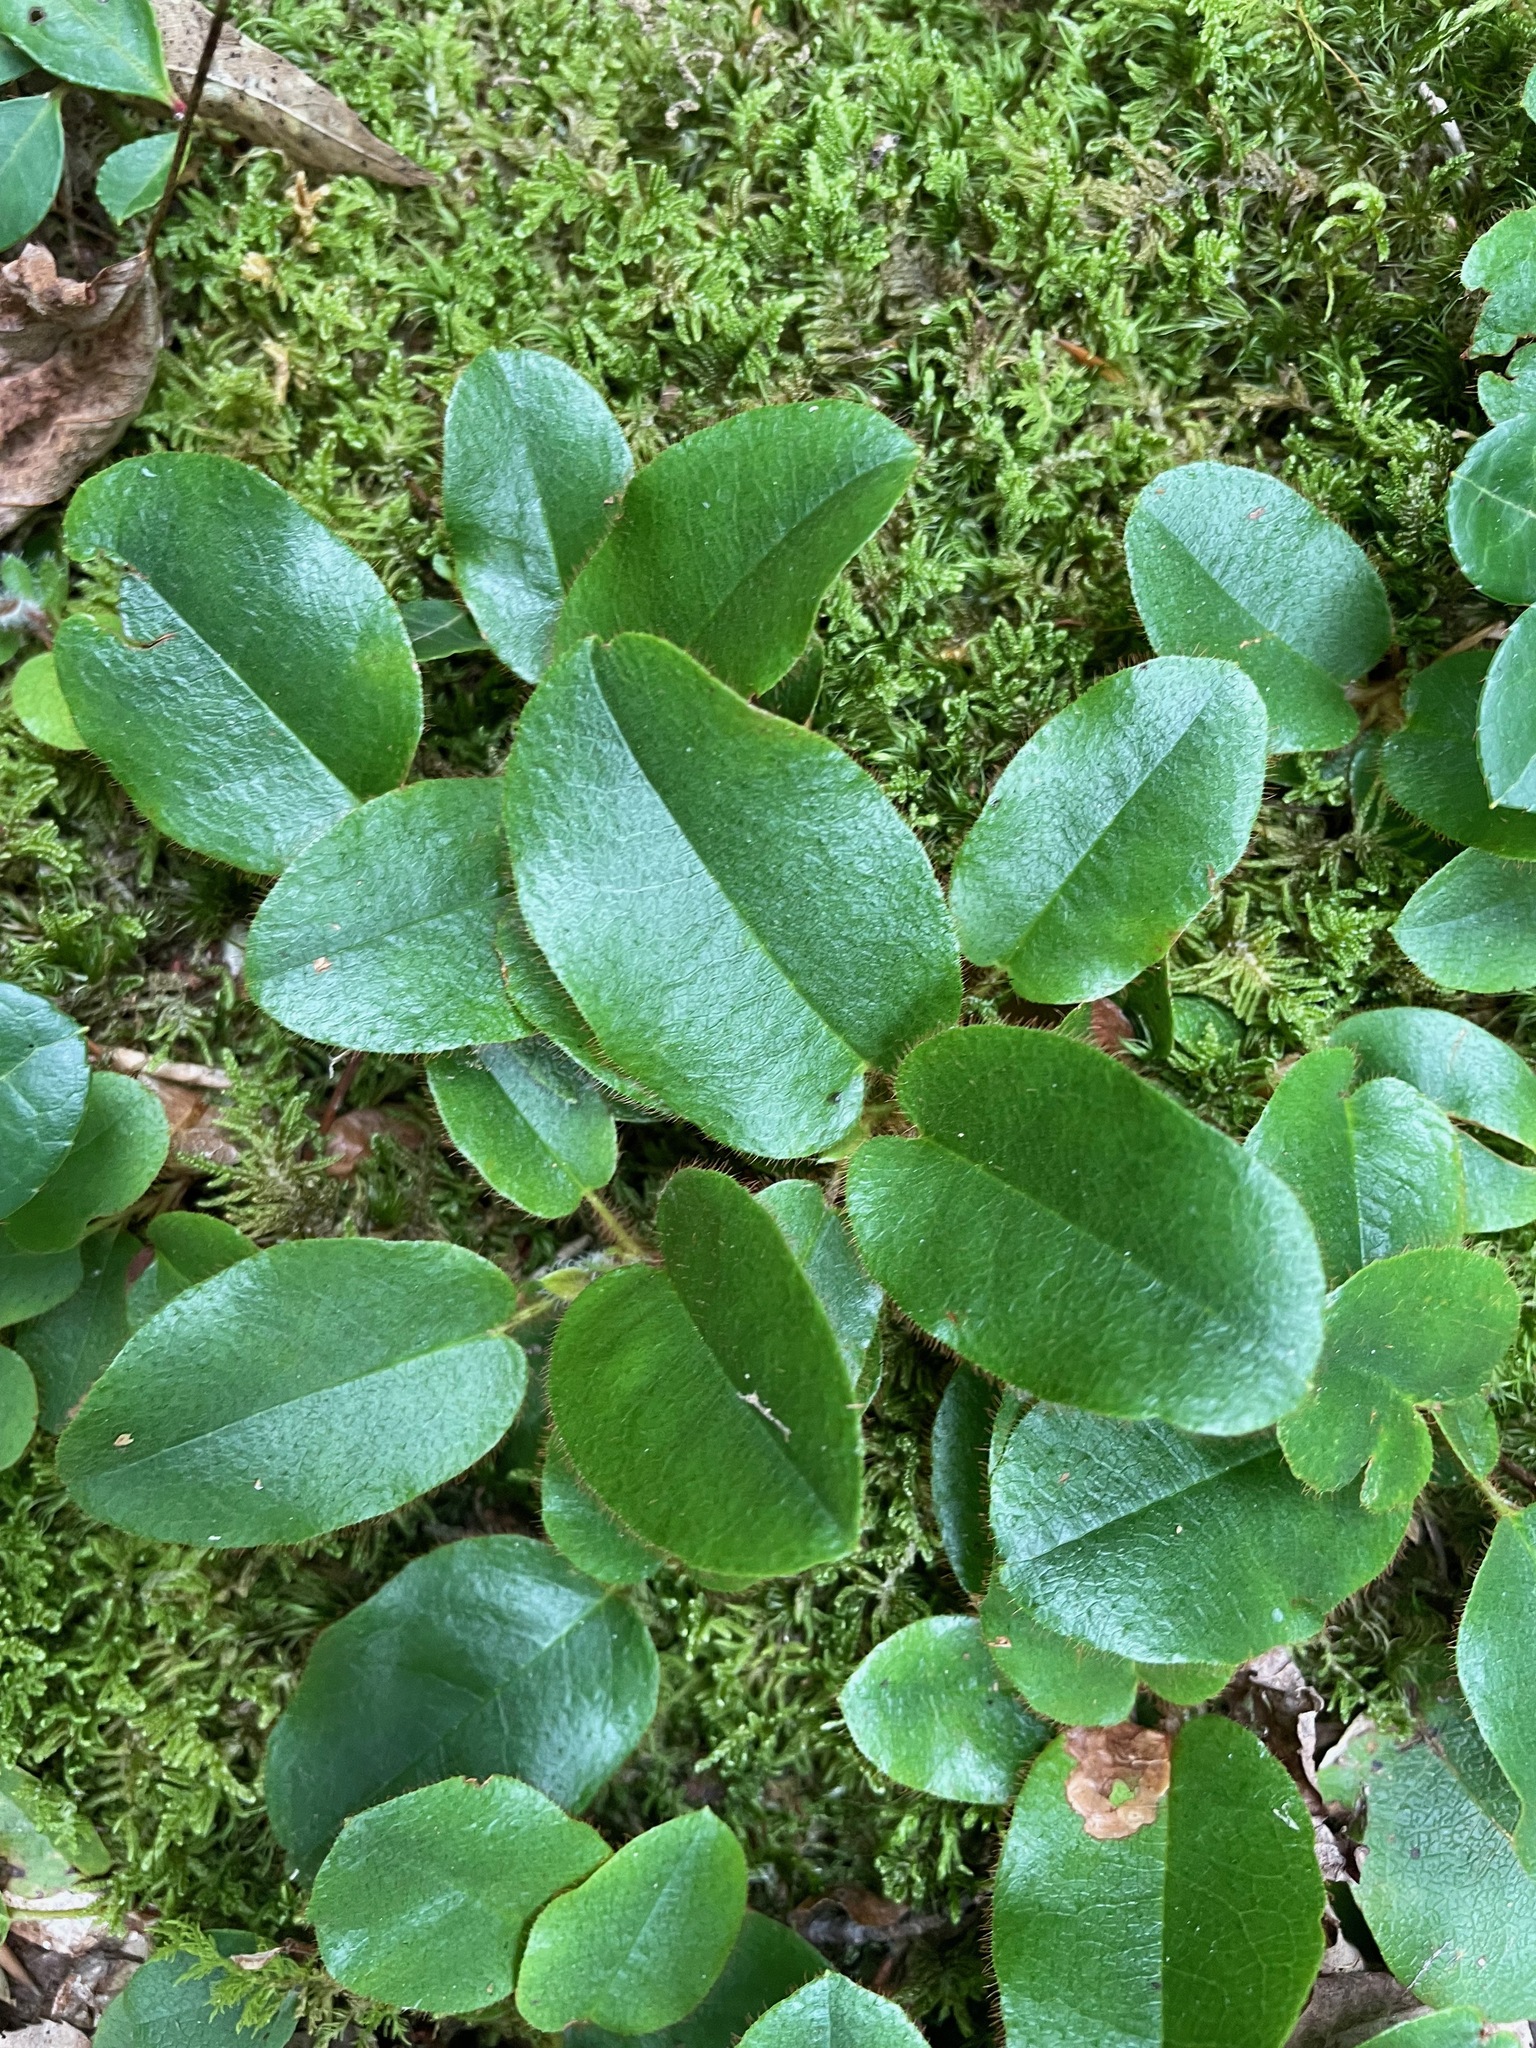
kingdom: Plantae
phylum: Tracheophyta
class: Magnoliopsida
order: Ericales
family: Ericaceae
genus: Epigaea
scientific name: Epigaea repens
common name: Gravelroot
